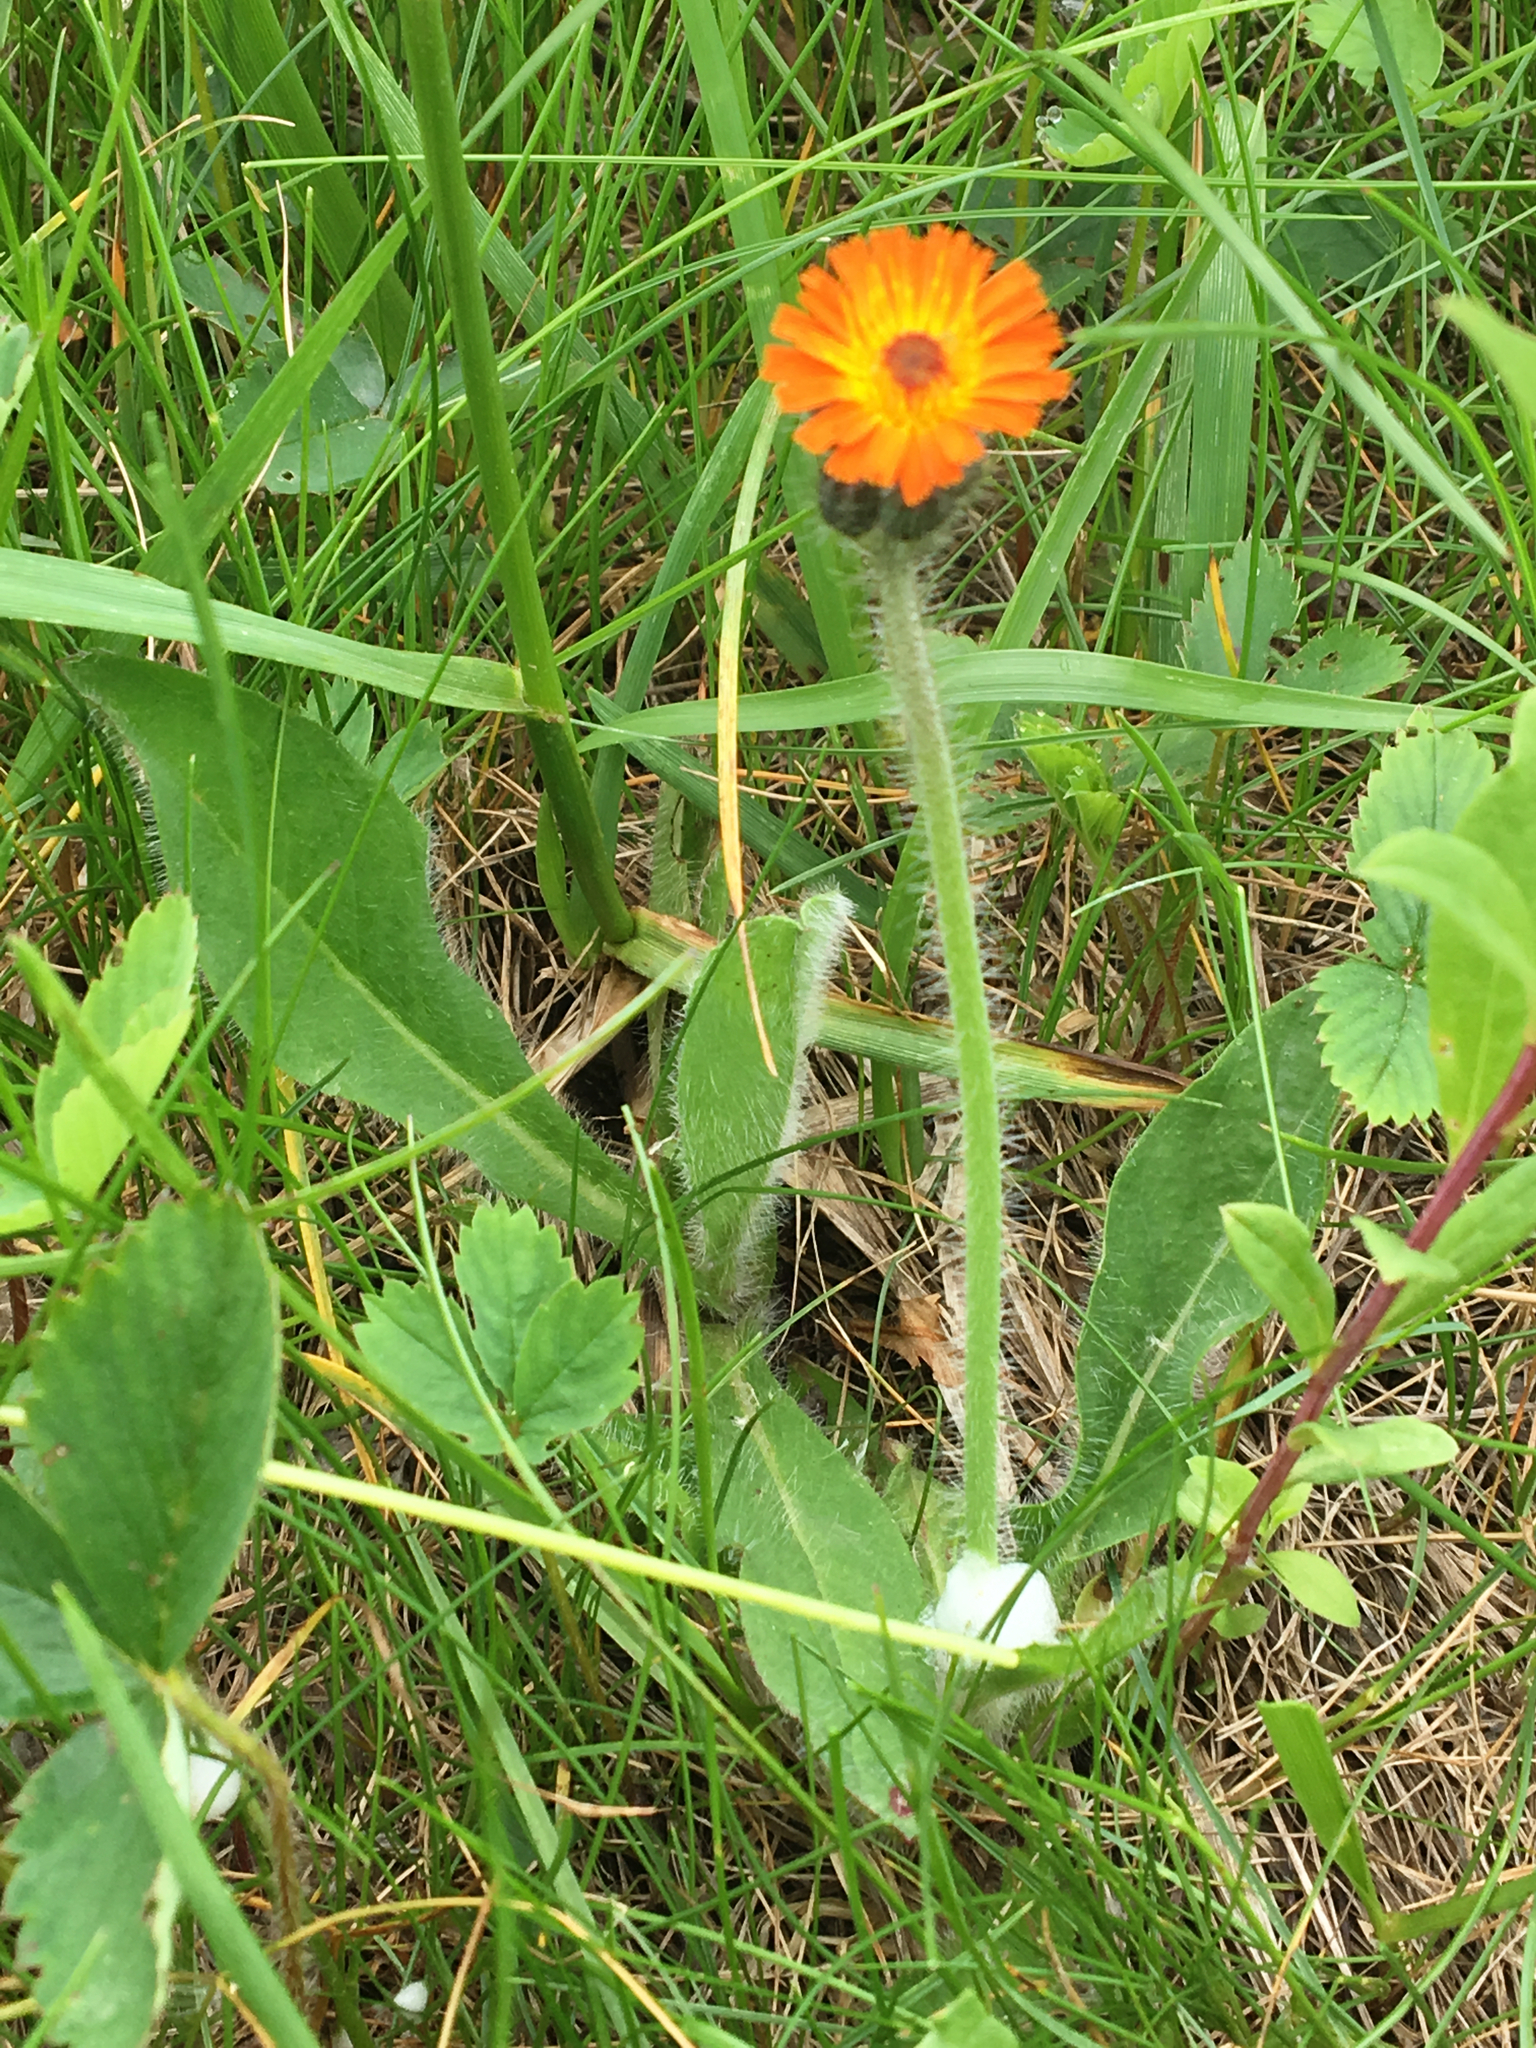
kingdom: Plantae
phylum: Tracheophyta
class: Magnoliopsida
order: Asterales
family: Asteraceae
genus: Pilosella
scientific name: Pilosella aurantiaca
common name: Fox-and-cubs
